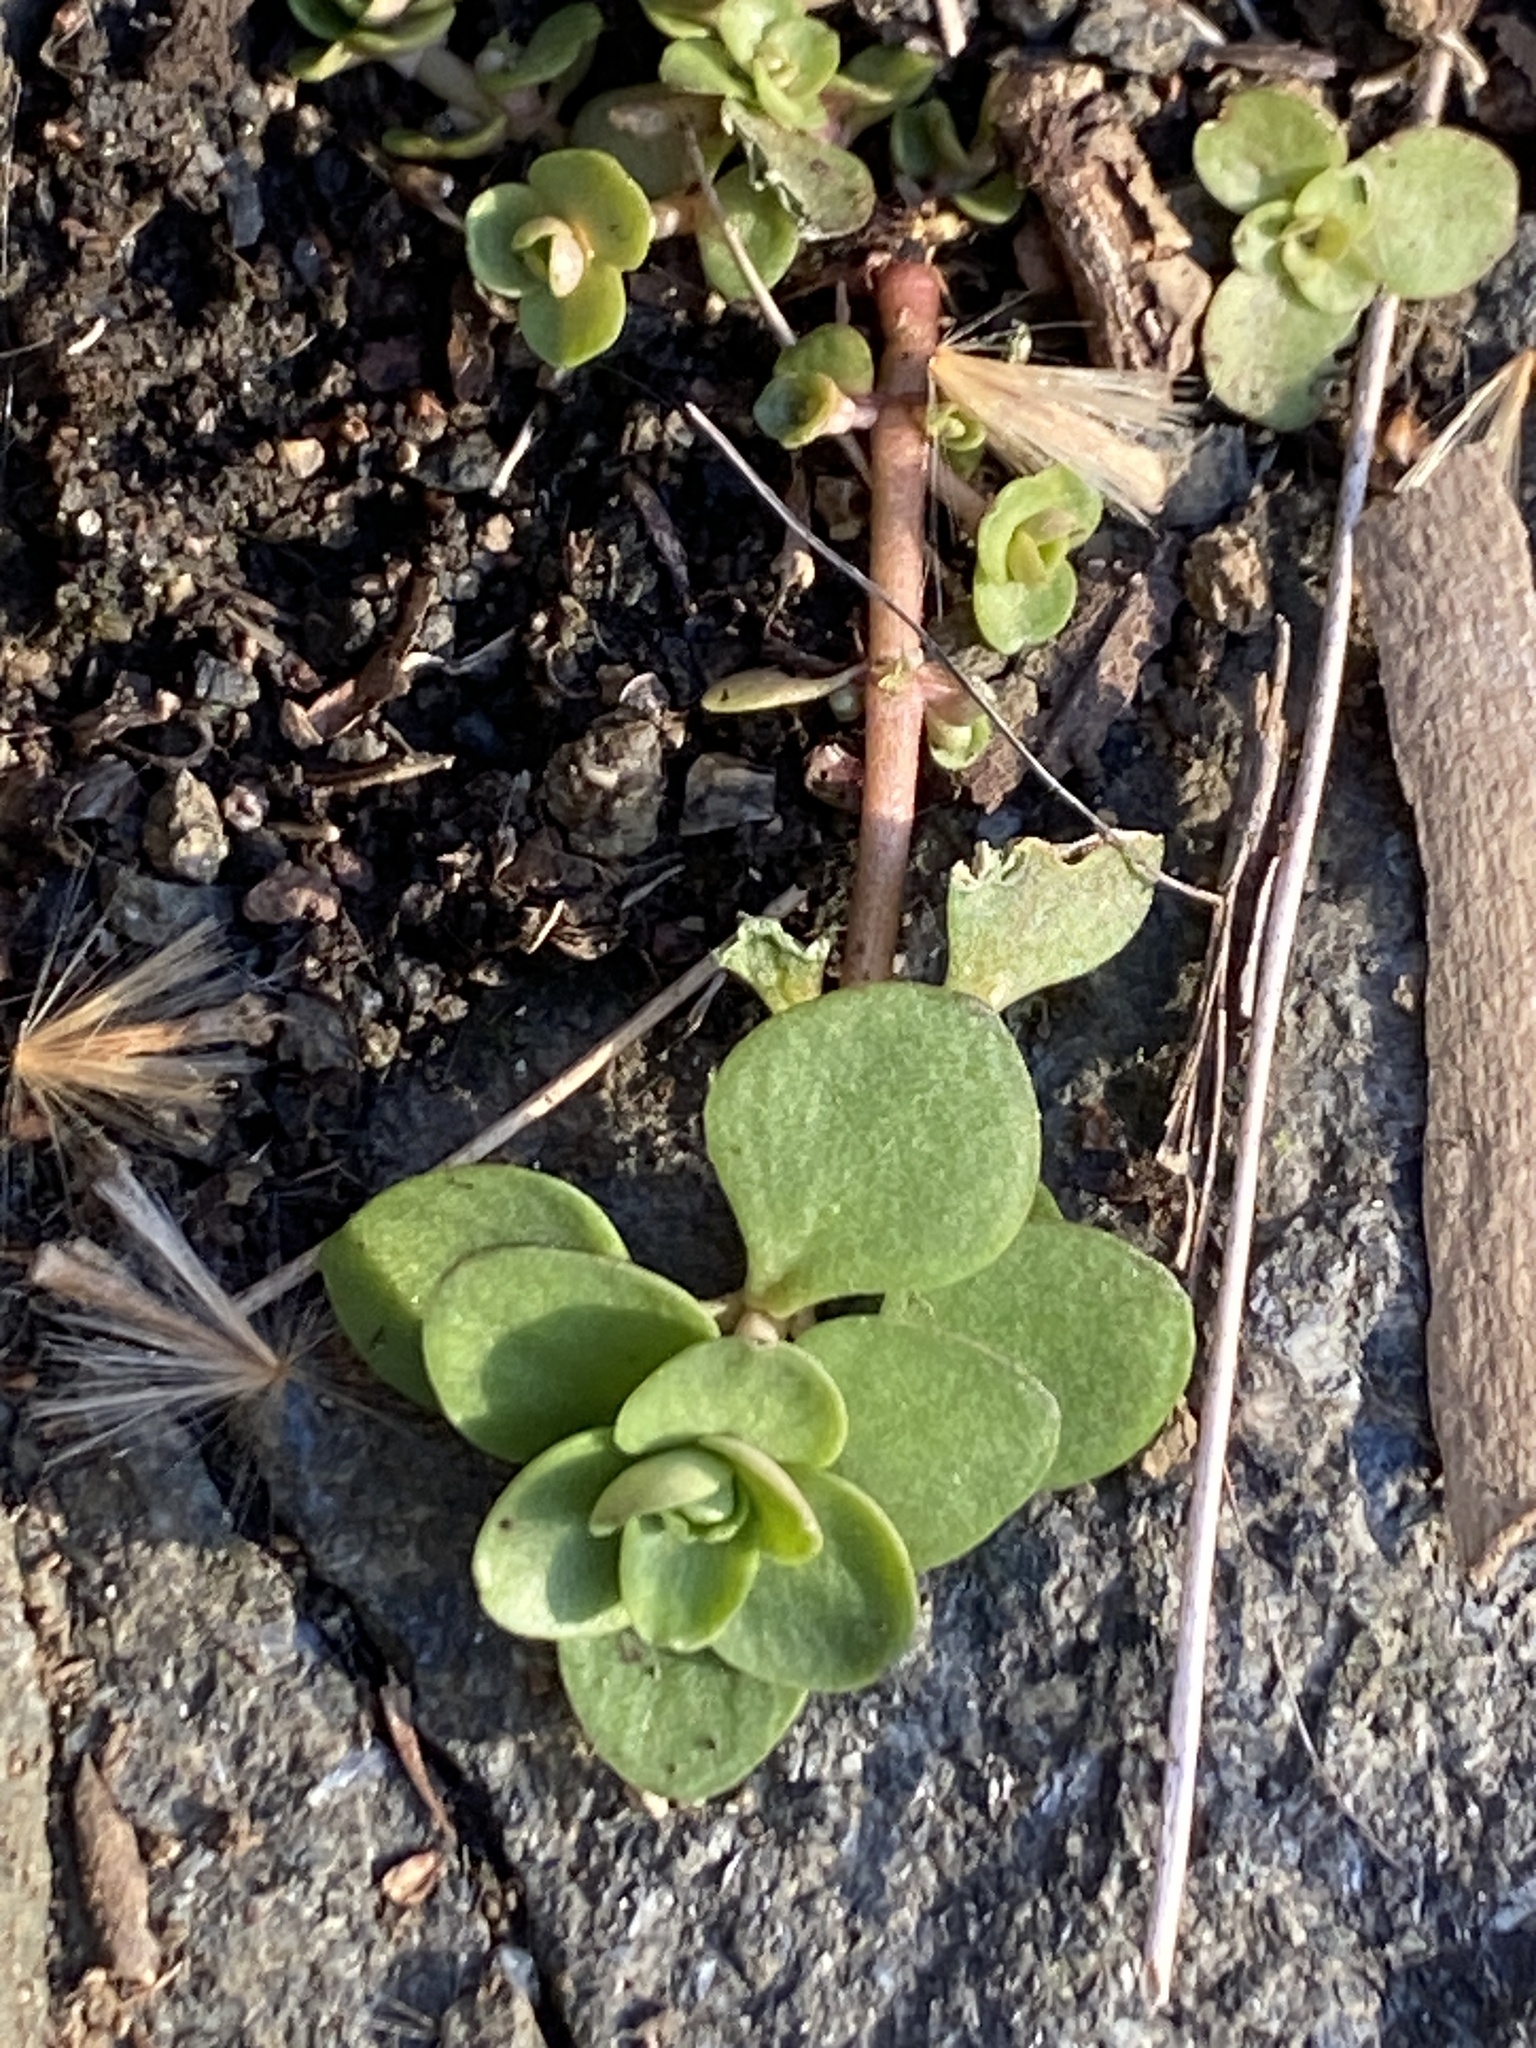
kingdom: Plantae
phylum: Tracheophyta
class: Magnoliopsida
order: Saxifragales
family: Crassulaceae
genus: Sedum
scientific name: Sedum ternatum
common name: Wild stonecrop
